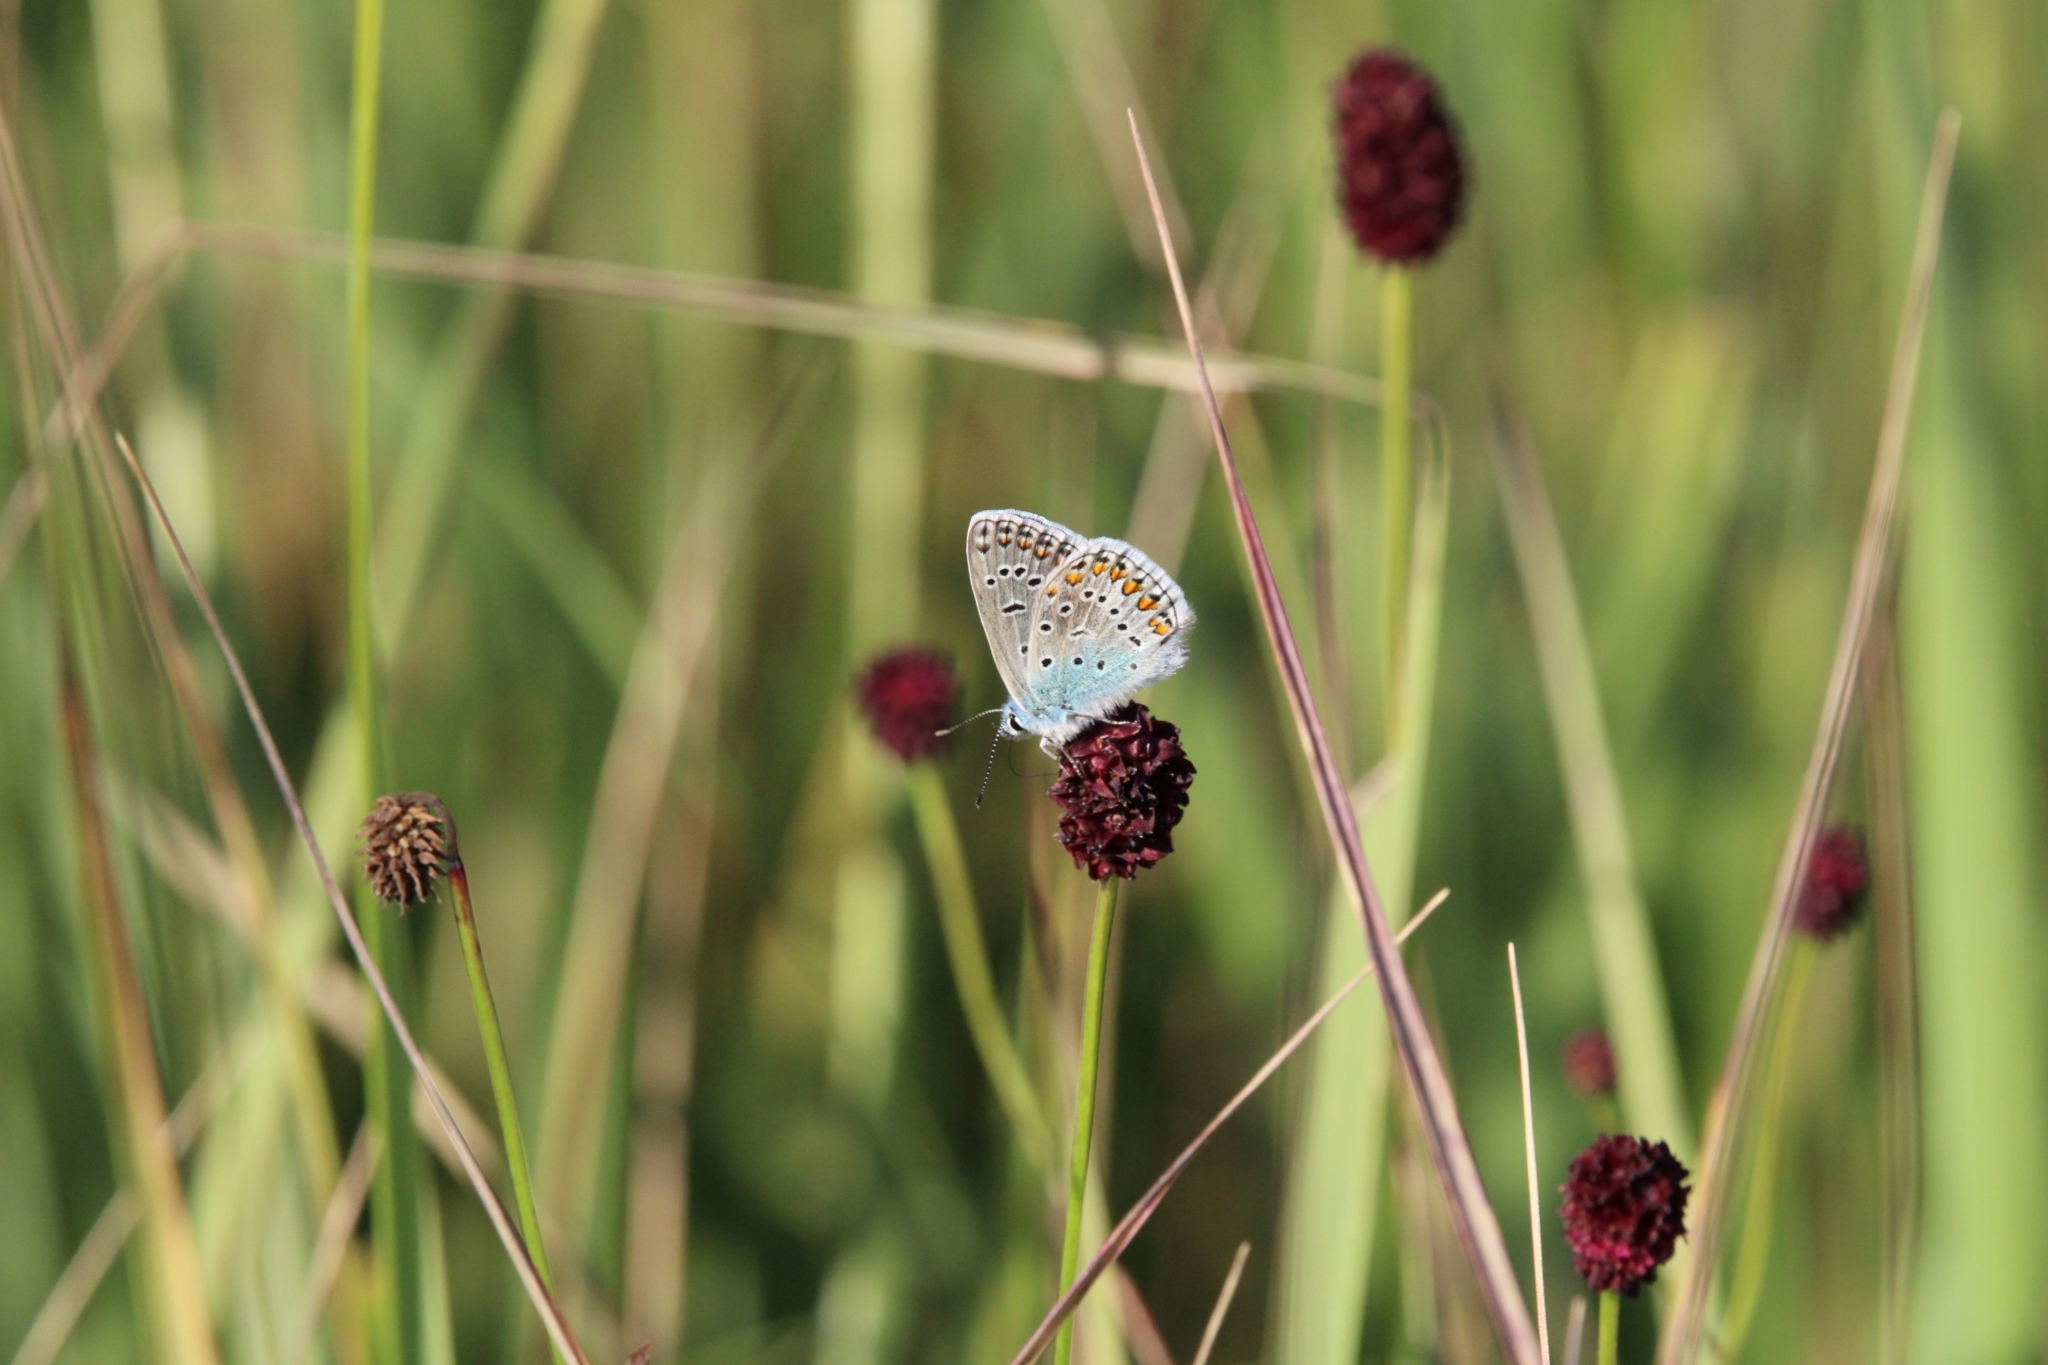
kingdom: Animalia
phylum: Arthropoda
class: Insecta
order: Lepidoptera
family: Lycaenidae
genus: Polyommatus
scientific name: Polyommatus icarus
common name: Common blue
